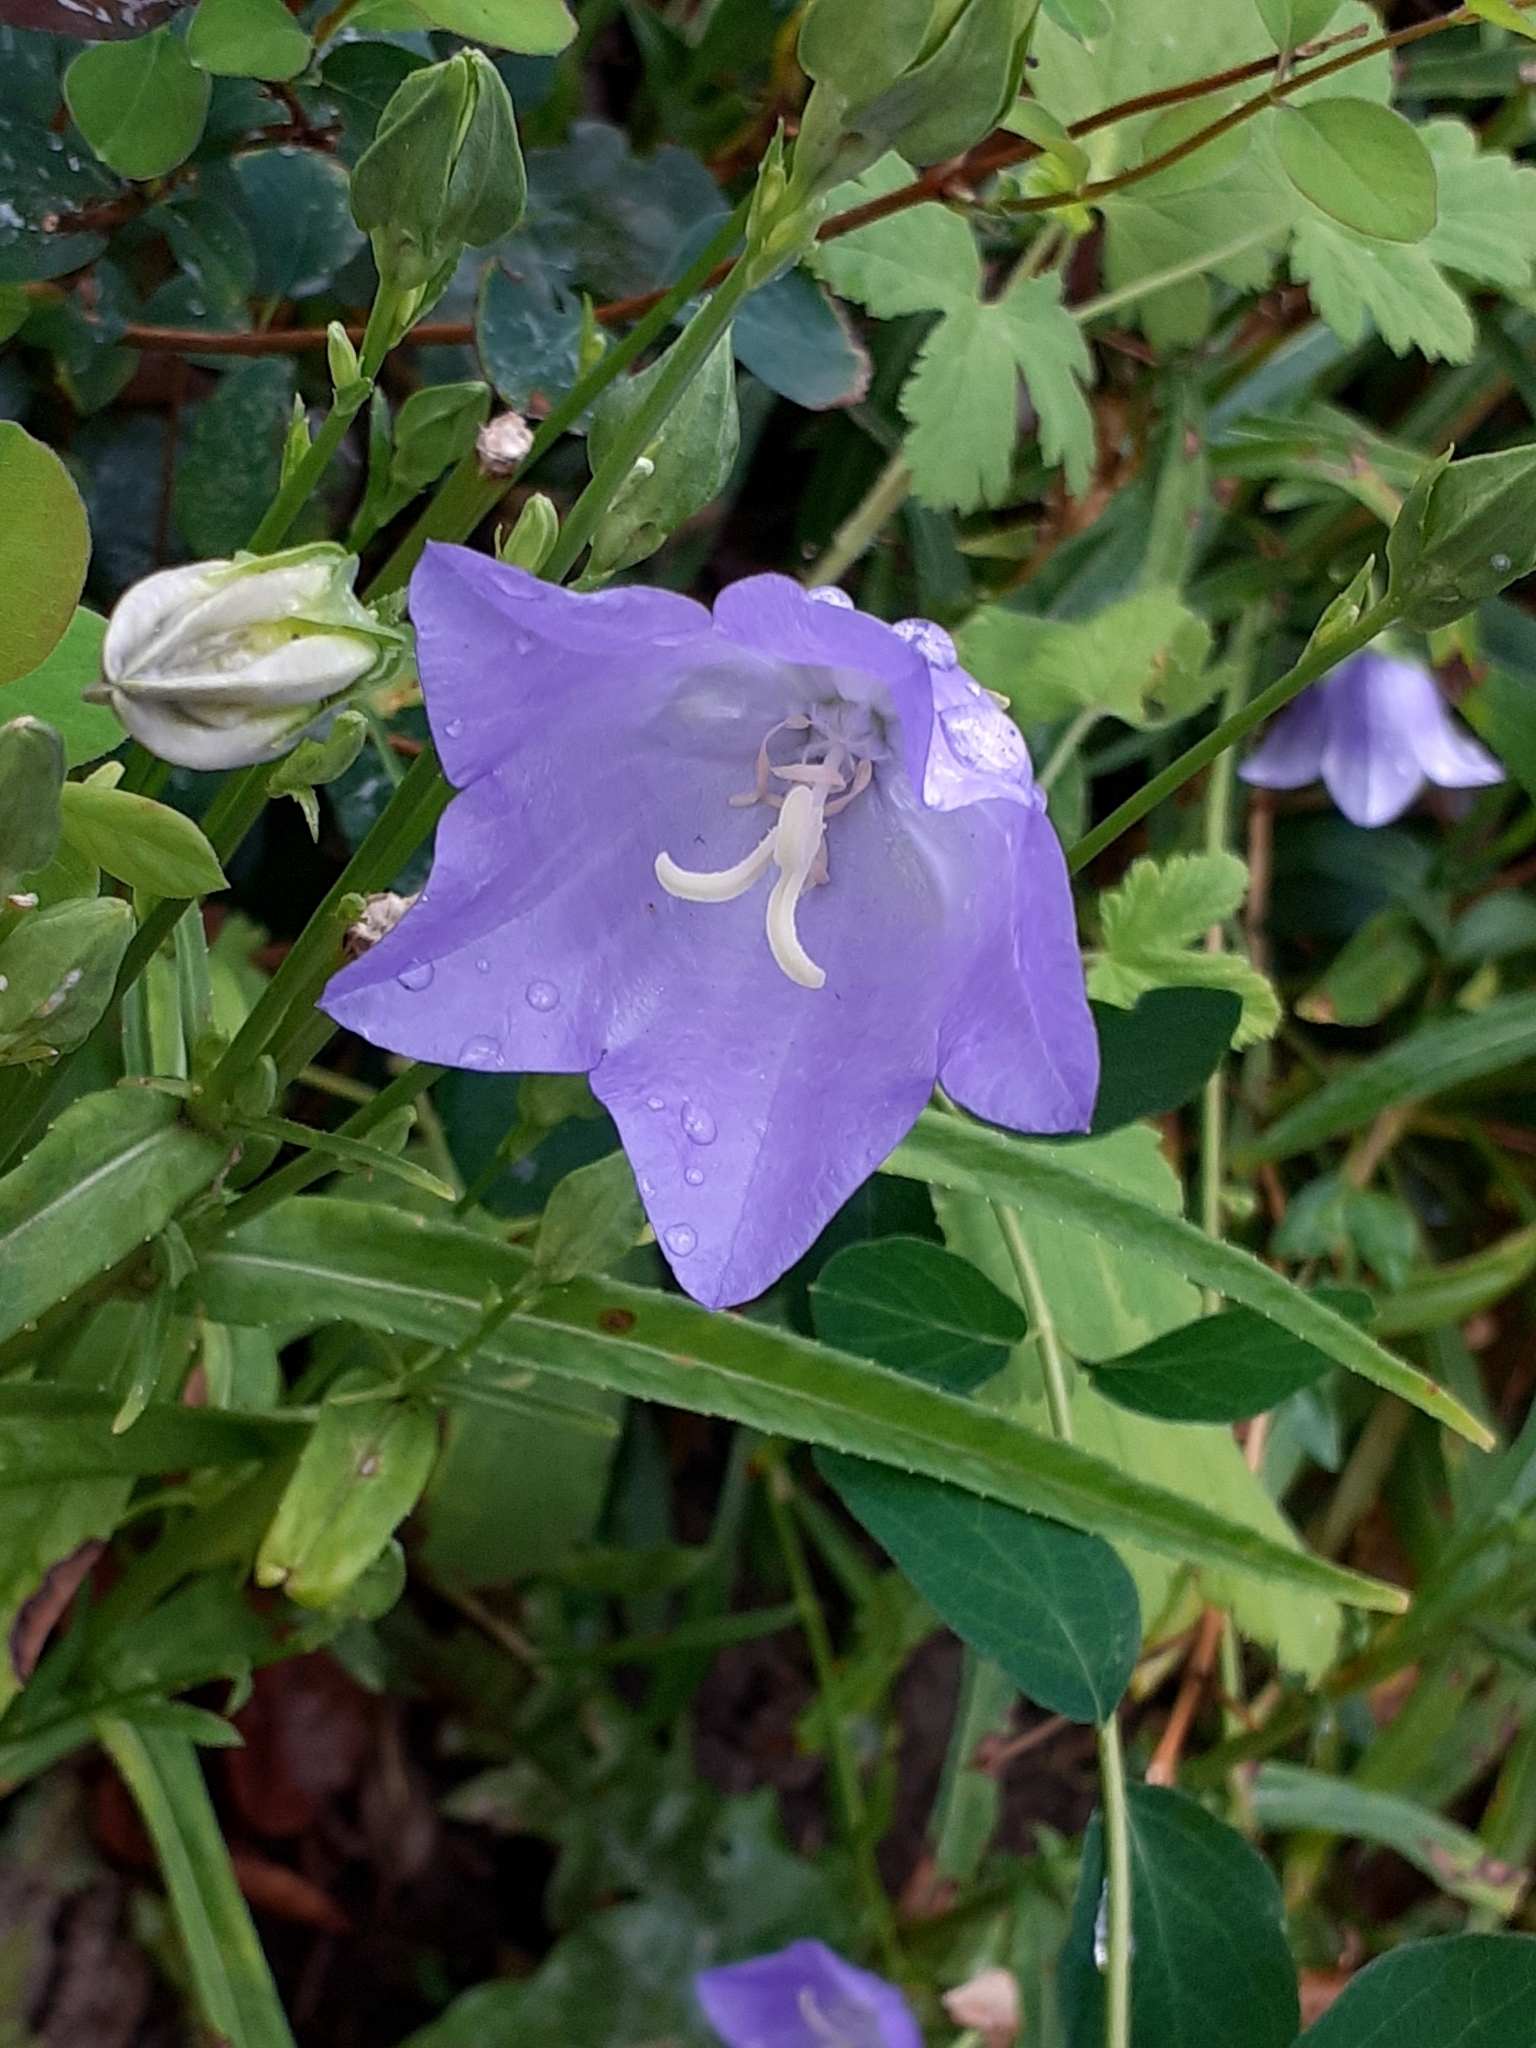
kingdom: Plantae
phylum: Tracheophyta
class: Magnoliopsida
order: Asterales
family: Campanulaceae
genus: Campanula
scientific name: Campanula persicifolia
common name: Peach-leaved bellflower
